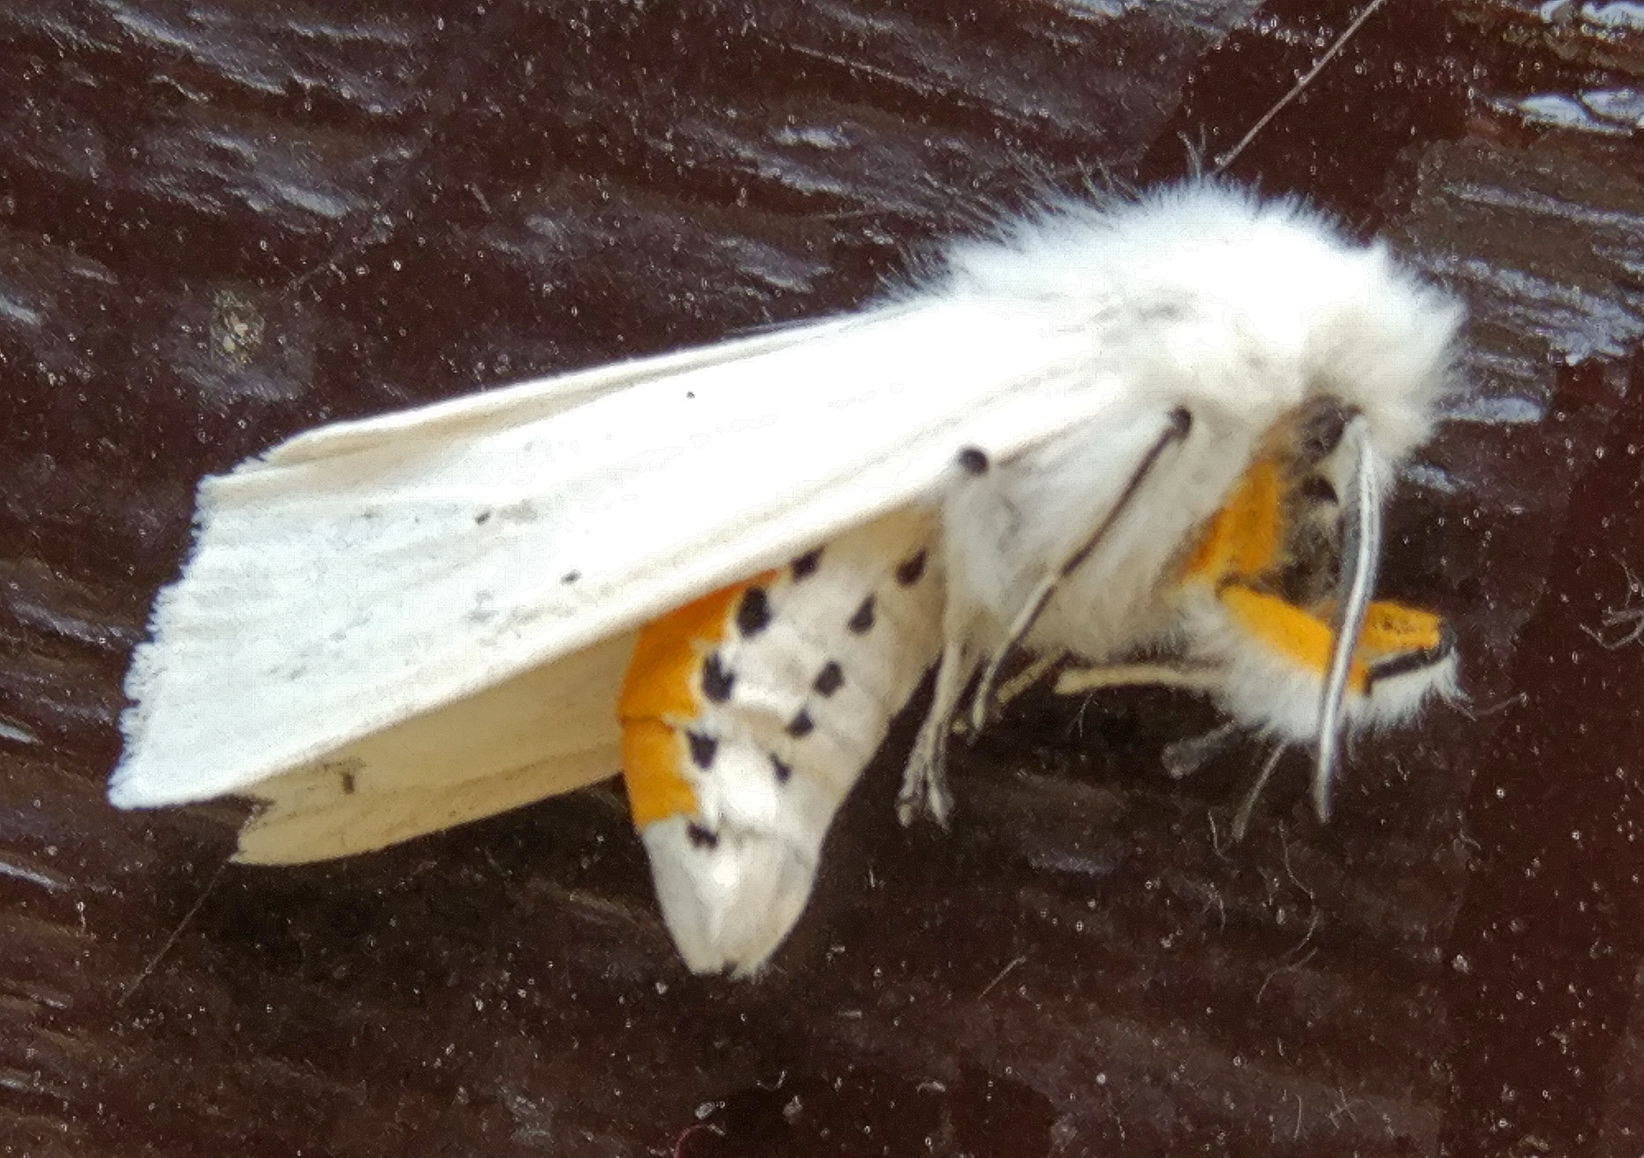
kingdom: Animalia
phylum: Arthropoda
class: Insecta
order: Lepidoptera
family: Erebidae
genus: Spilosoma
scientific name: Spilosoma urticae
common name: Water ermine
